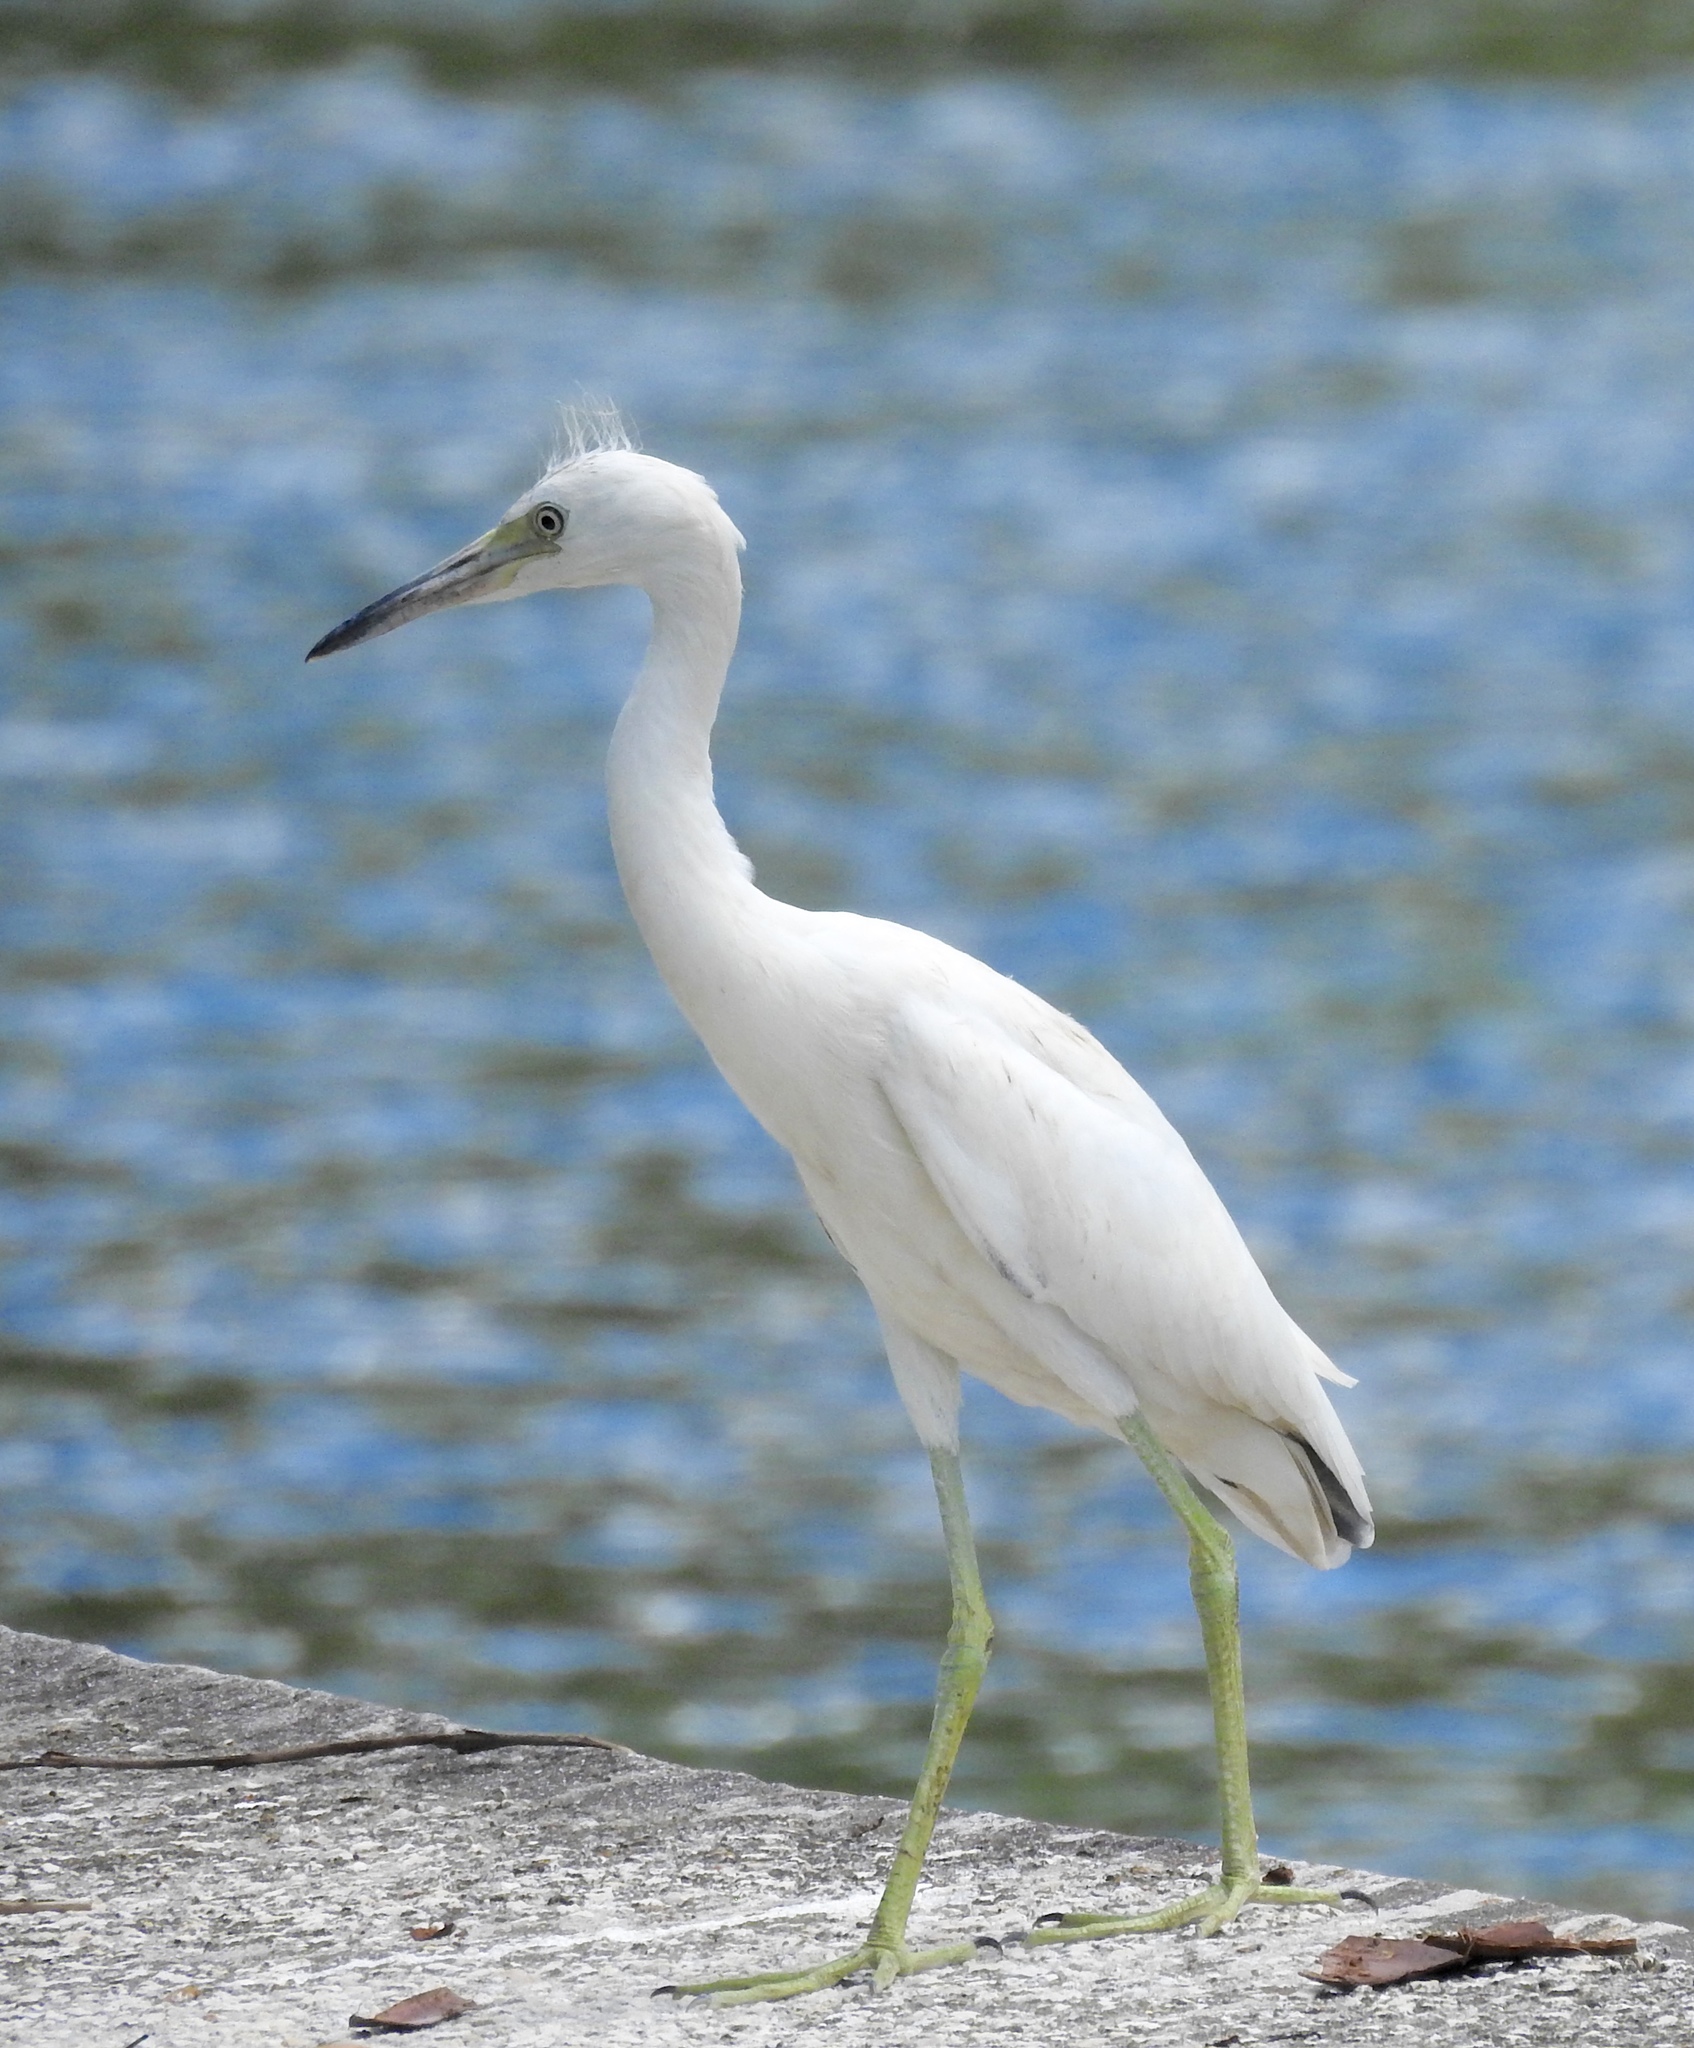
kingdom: Animalia
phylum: Chordata
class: Aves
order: Pelecaniformes
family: Ardeidae
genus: Egretta
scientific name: Egretta caerulea
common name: Little blue heron
